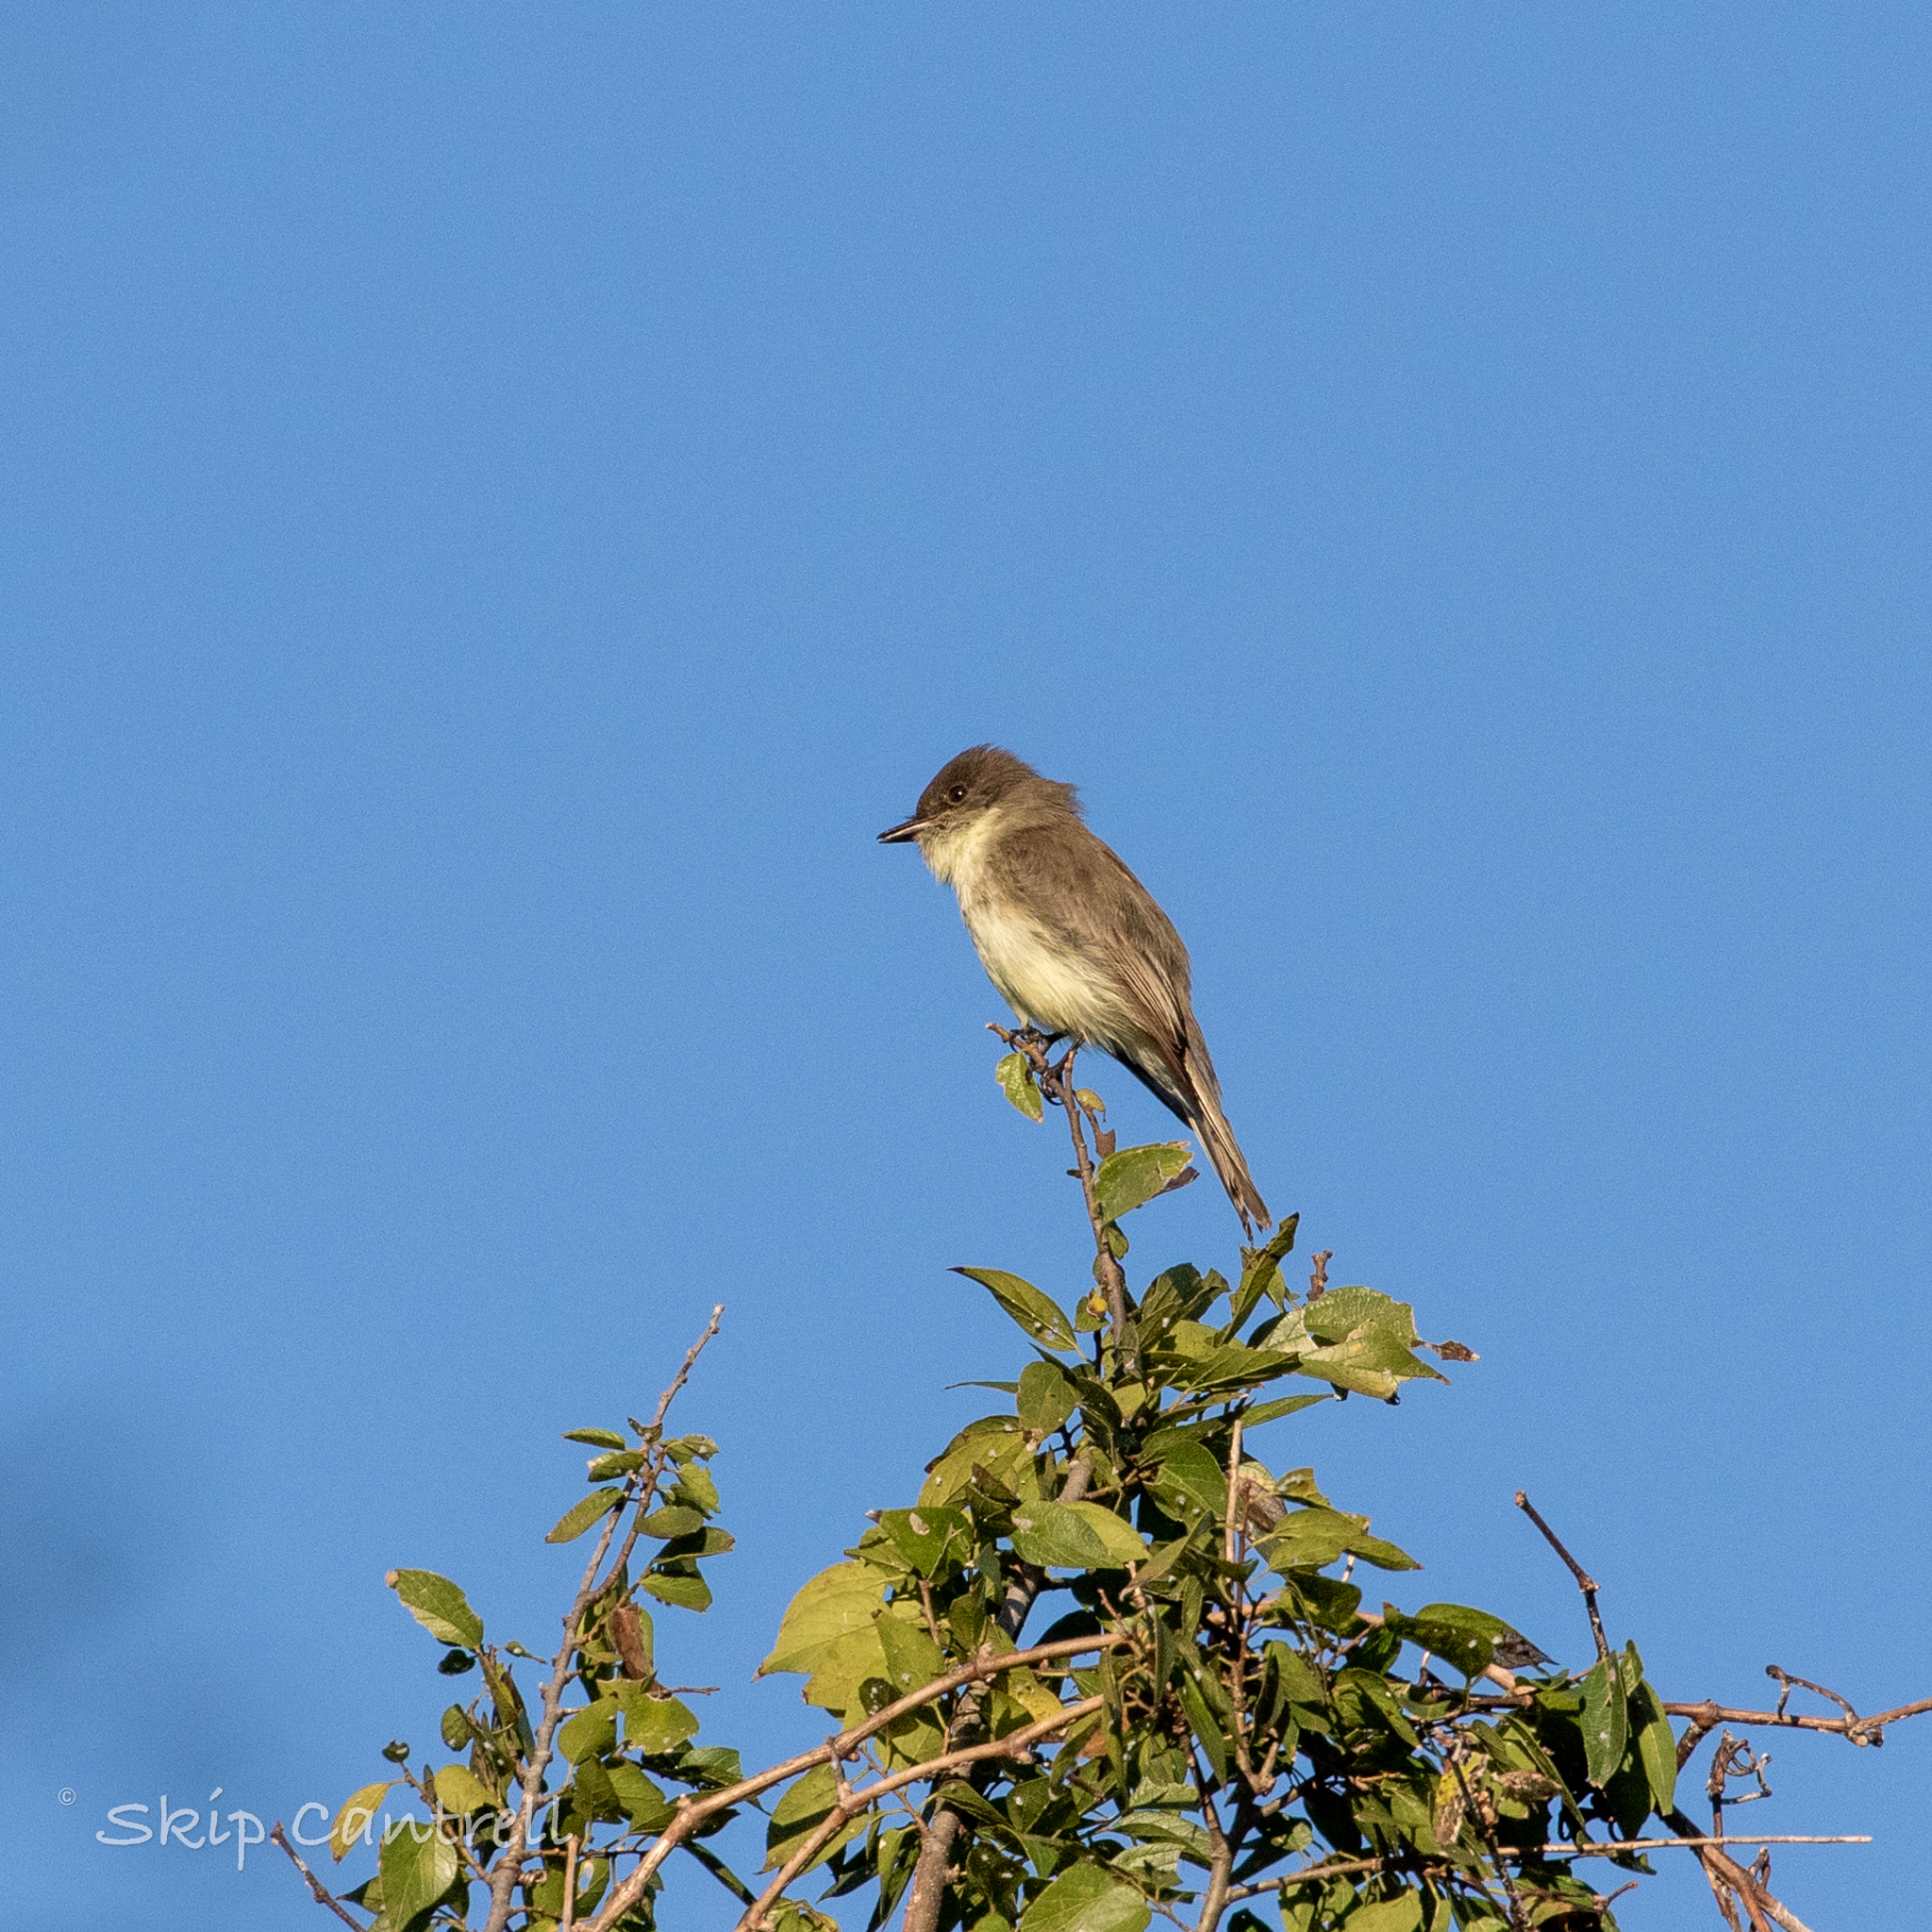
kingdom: Animalia
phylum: Chordata
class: Aves
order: Passeriformes
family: Tyrannidae
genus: Sayornis
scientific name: Sayornis phoebe
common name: Eastern phoebe
